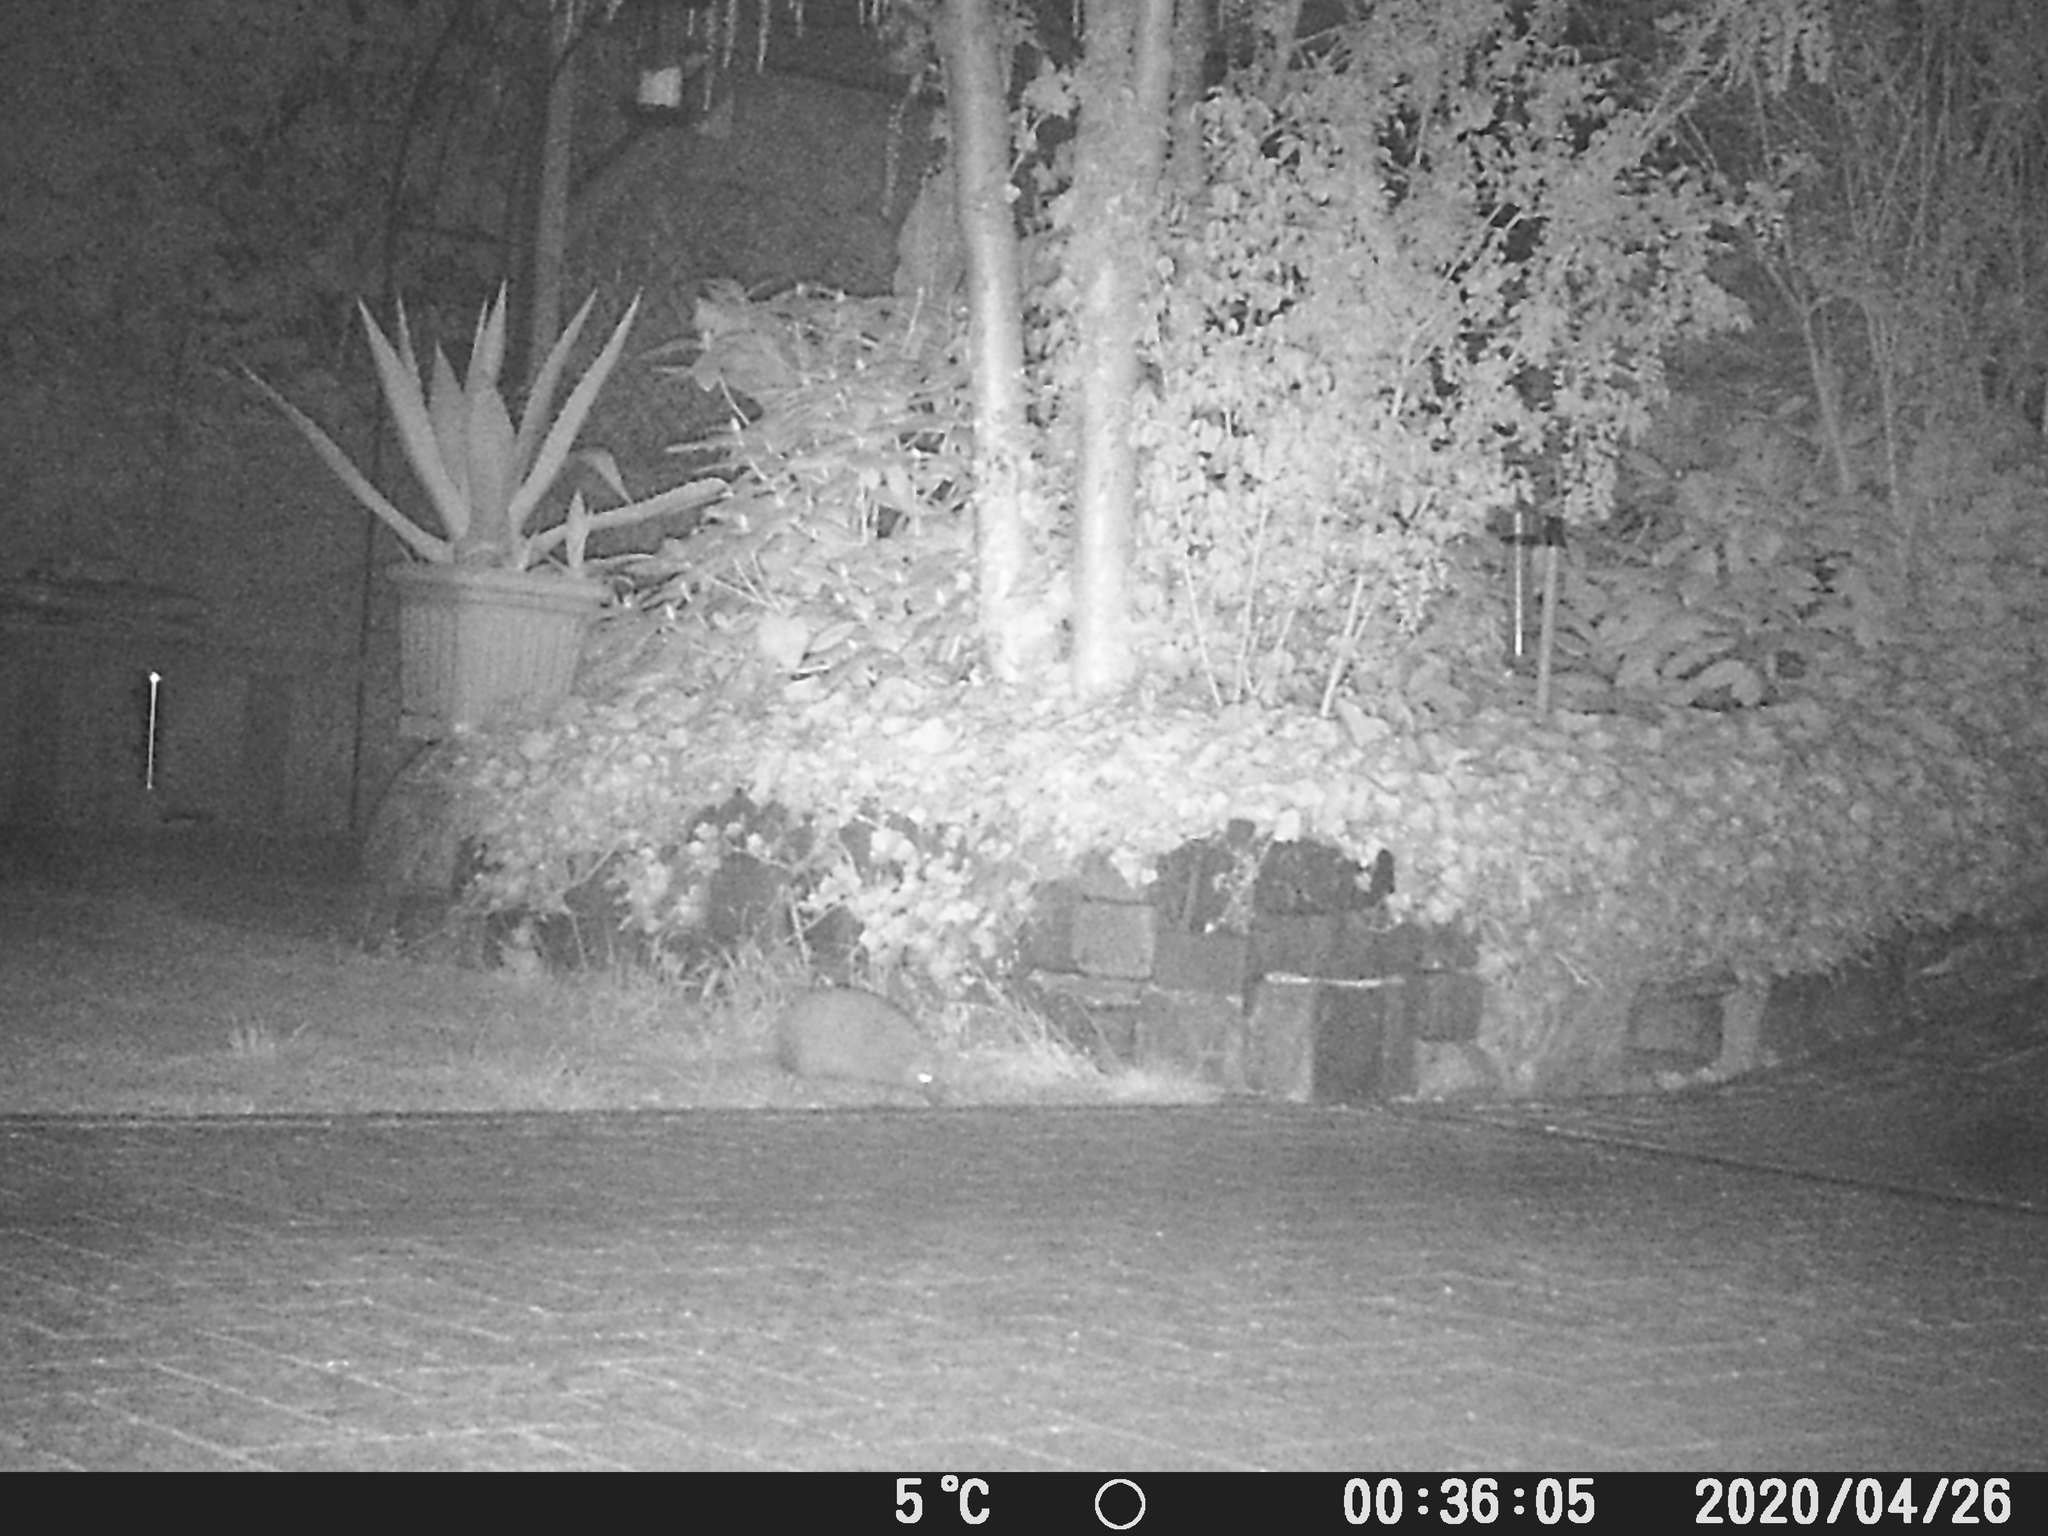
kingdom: Animalia
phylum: Chordata
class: Mammalia
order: Erinaceomorpha
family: Erinaceidae
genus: Erinaceus
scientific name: Erinaceus europaeus
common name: West european hedgehog
